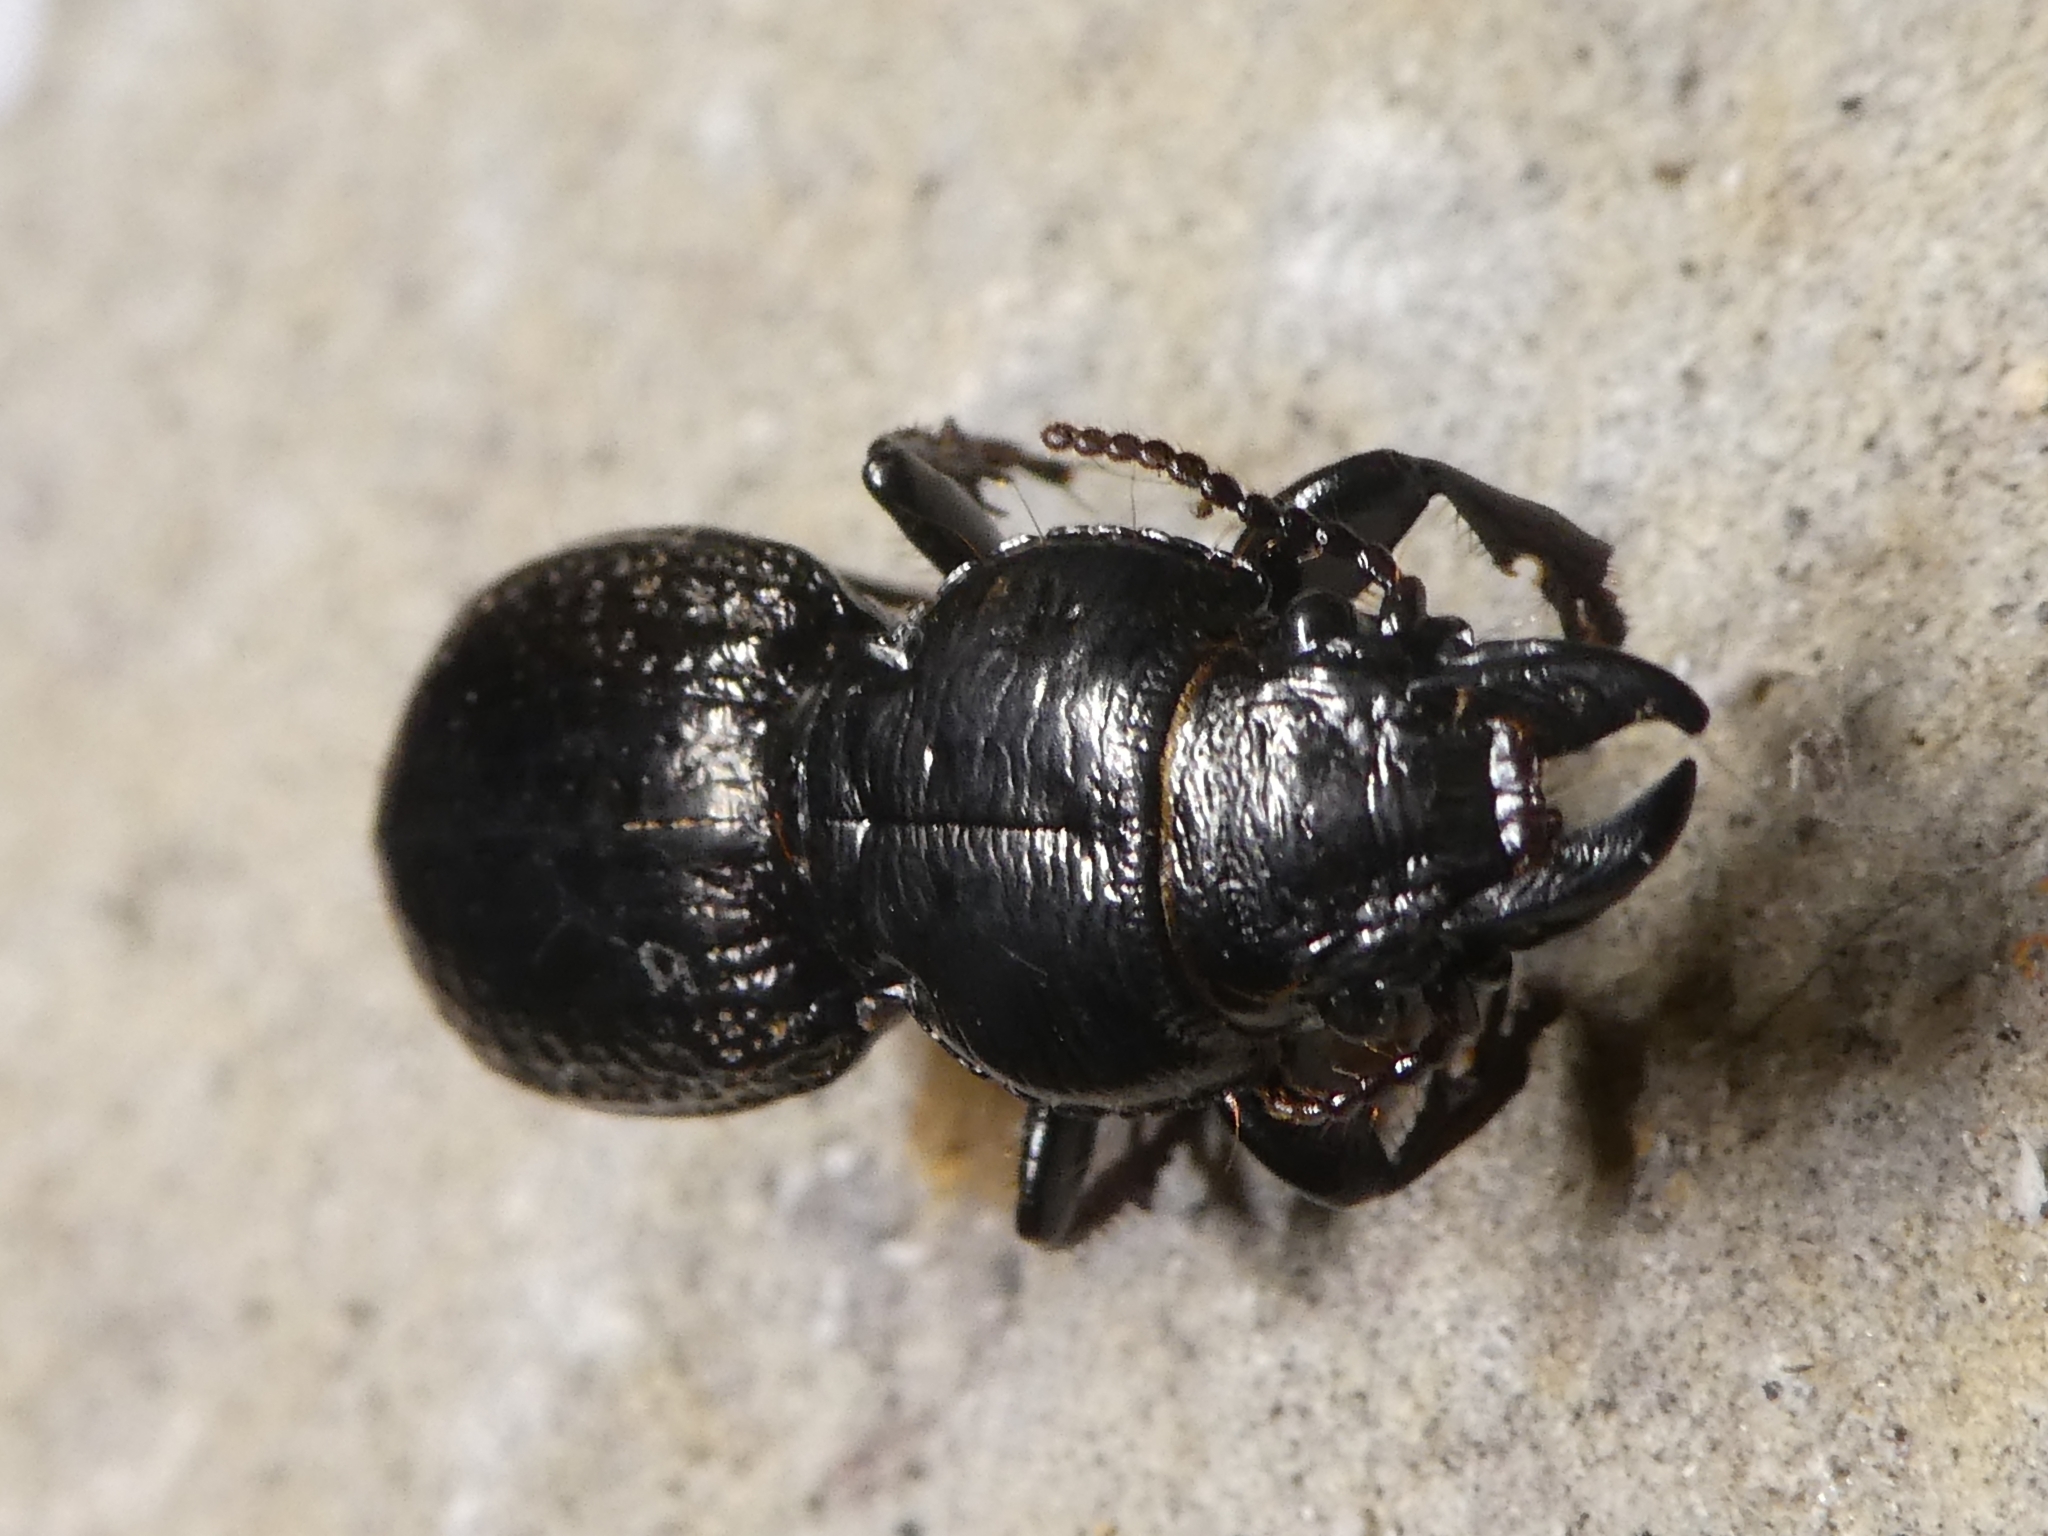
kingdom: Animalia
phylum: Arthropoda
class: Insecta
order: Coleoptera
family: Carabidae
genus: Mecodema
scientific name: Mecodema crenicolle
